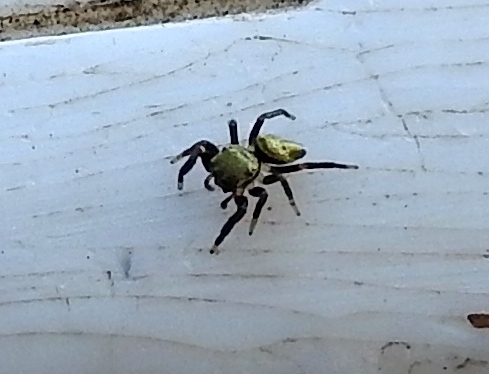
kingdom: Animalia
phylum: Arthropoda
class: Arachnida
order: Araneae
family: Salticidae
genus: Messua
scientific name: Messua
